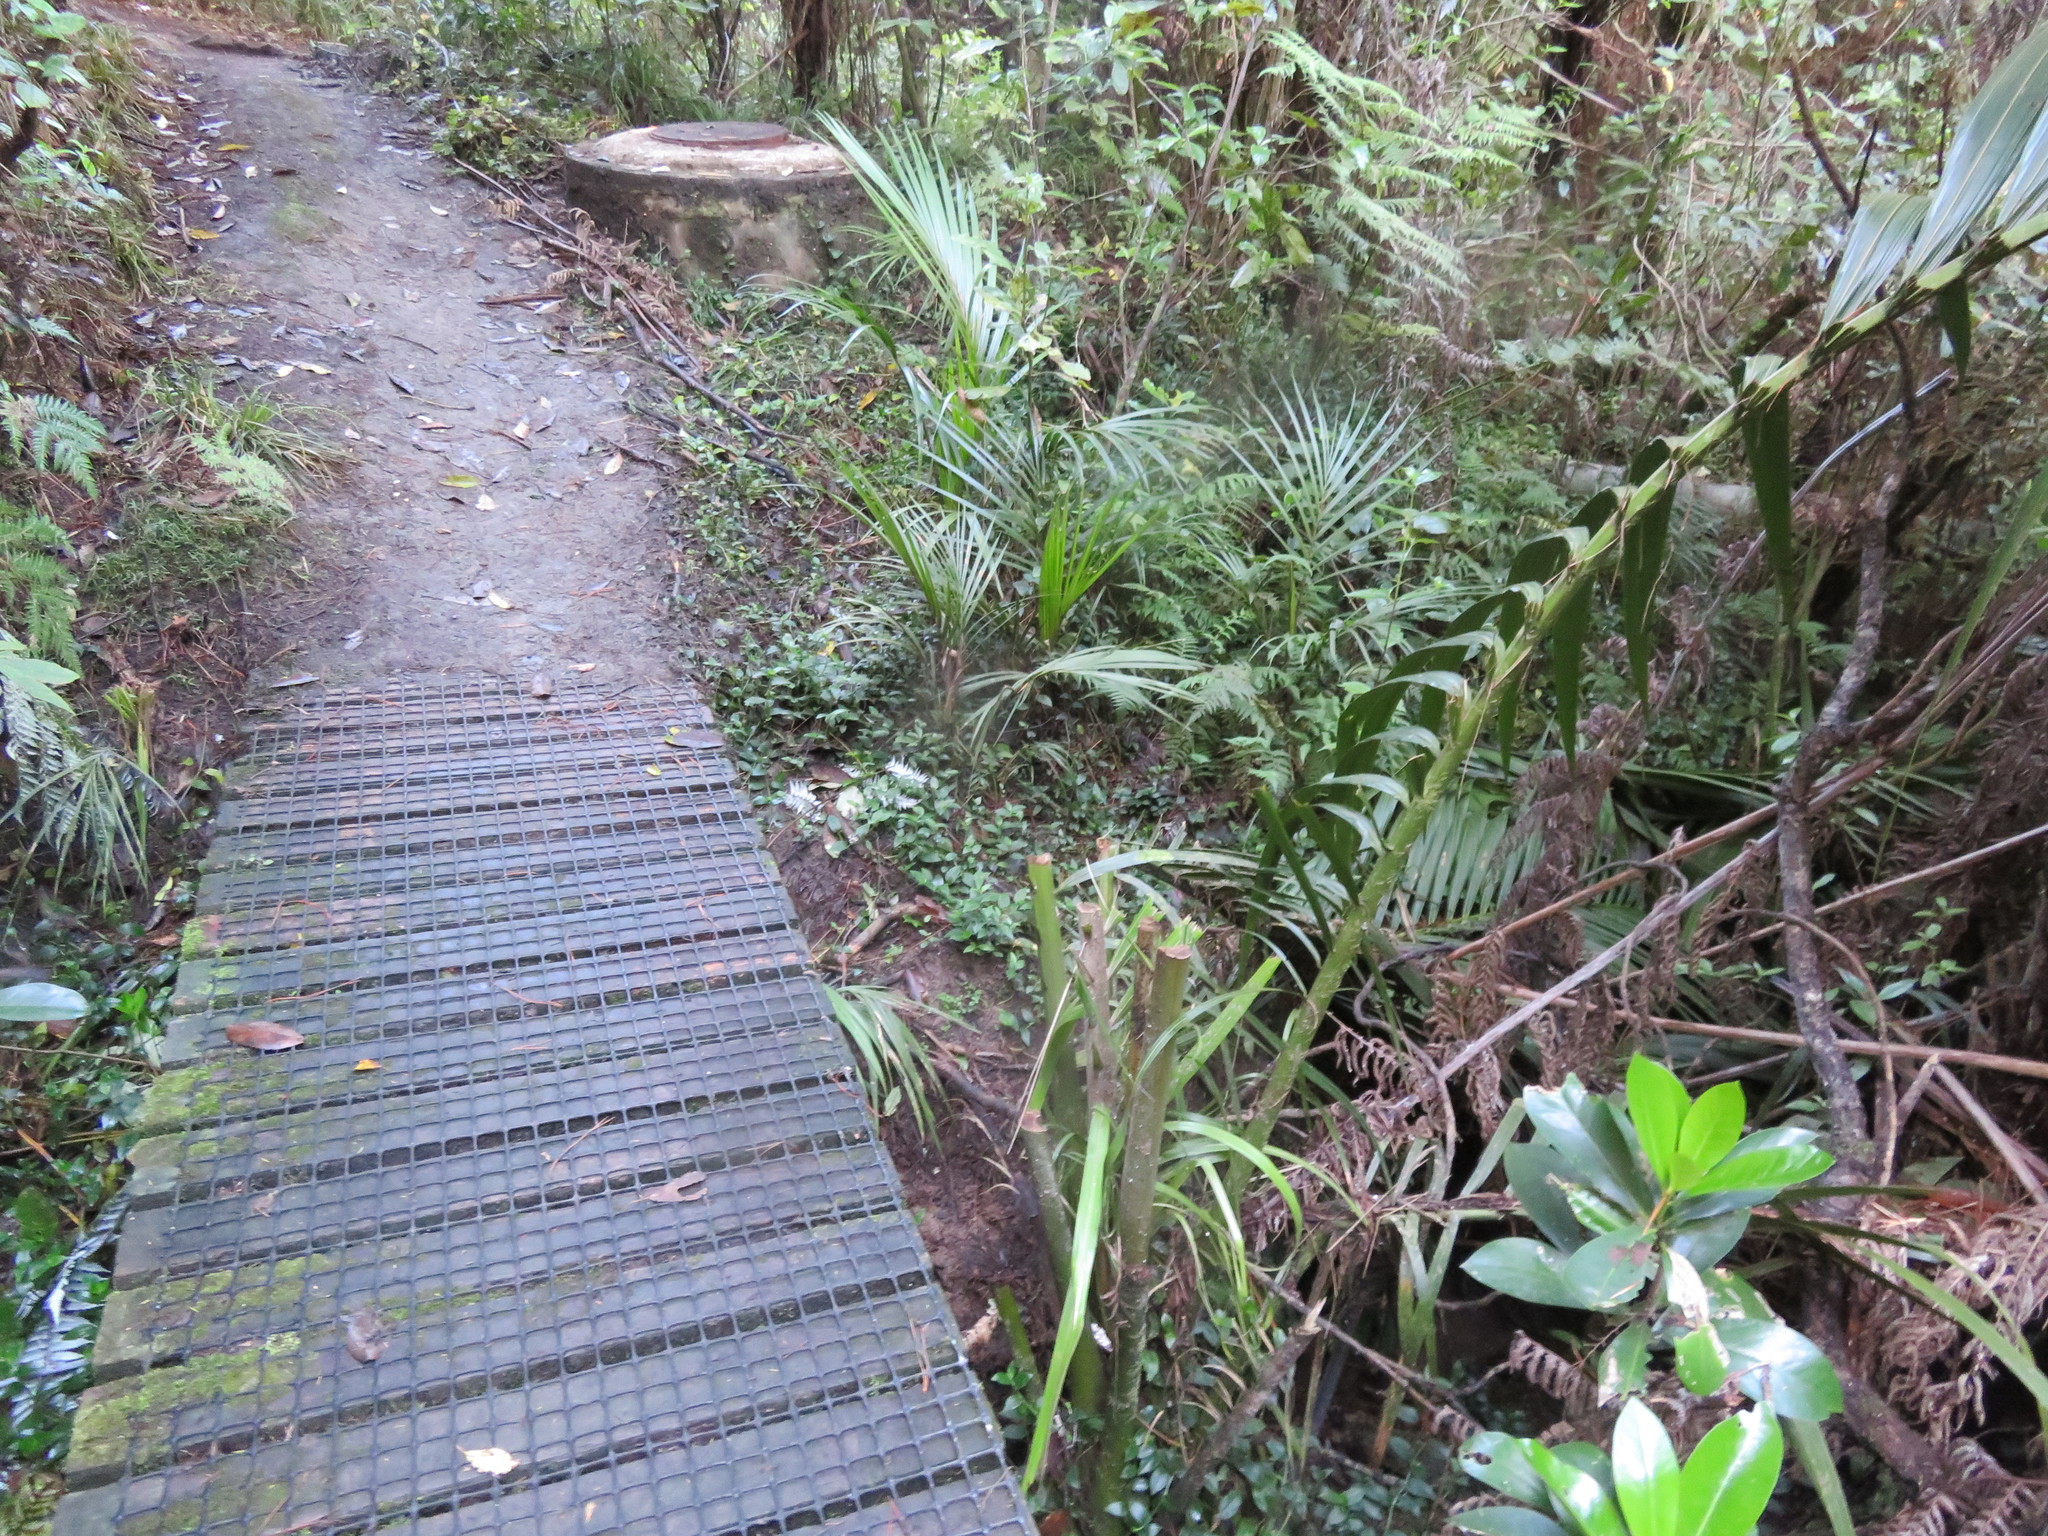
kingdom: Plantae
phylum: Tracheophyta
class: Magnoliopsida
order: Cucurbitales
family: Corynocarpaceae
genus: Corynocarpus
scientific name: Corynocarpus laevigatus
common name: New zealand laurel
